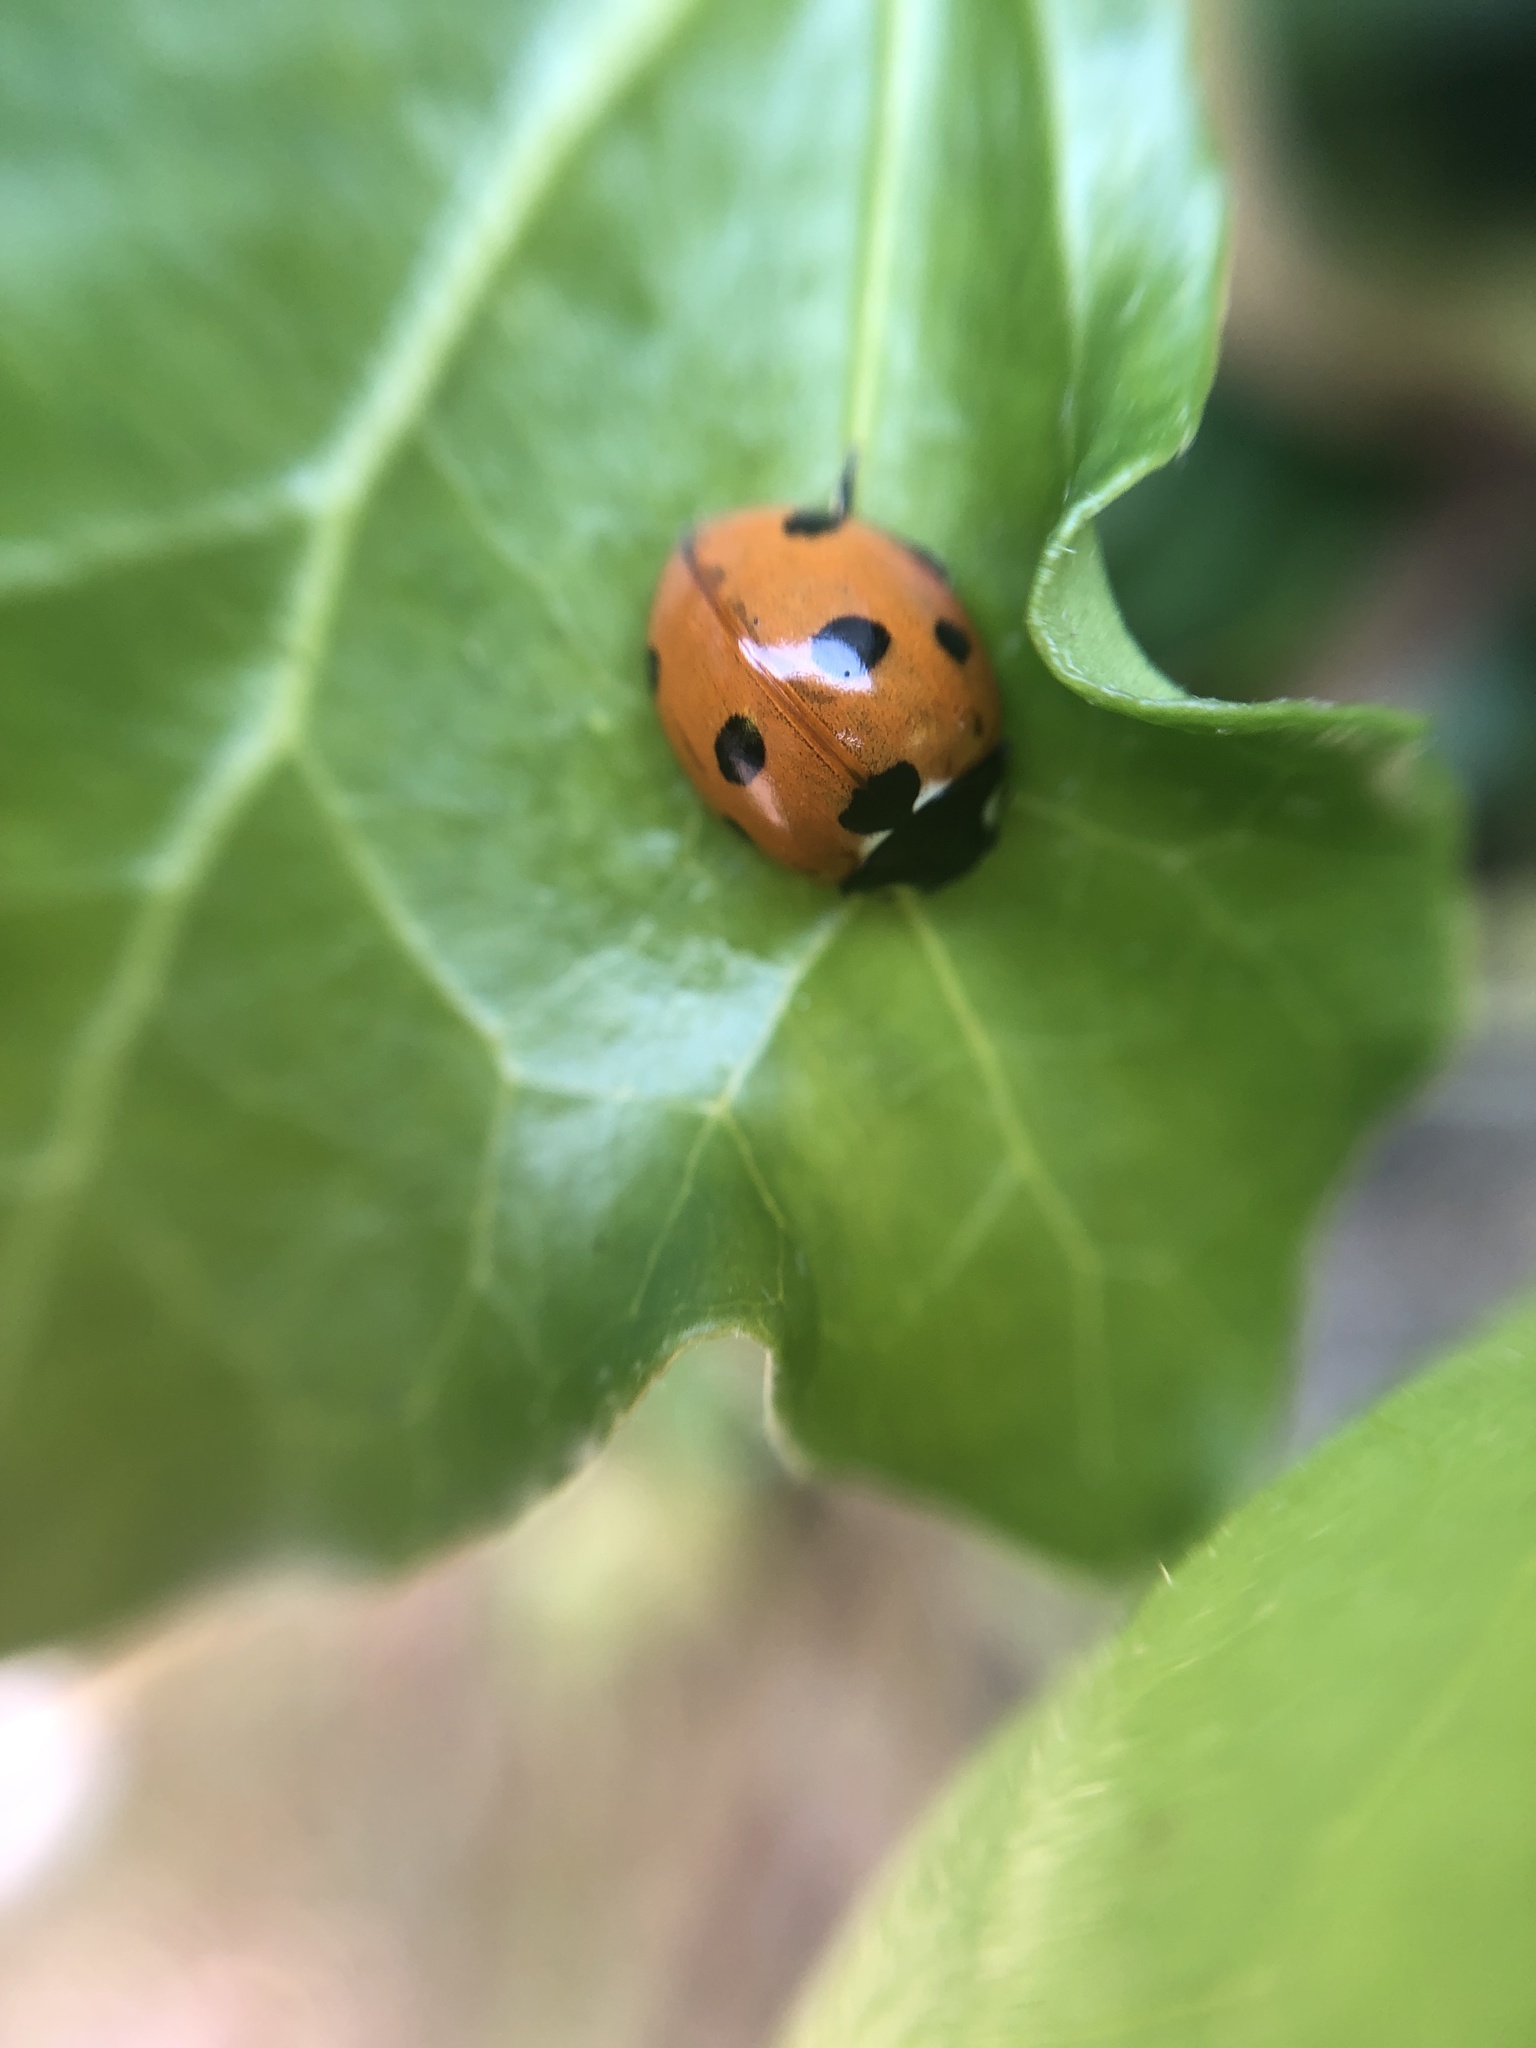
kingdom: Animalia
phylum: Arthropoda
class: Insecta
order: Coleoptera
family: Coccinellidae
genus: Coccinella
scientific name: Coccinella septempunctata
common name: Sevenspotted lady beetle
